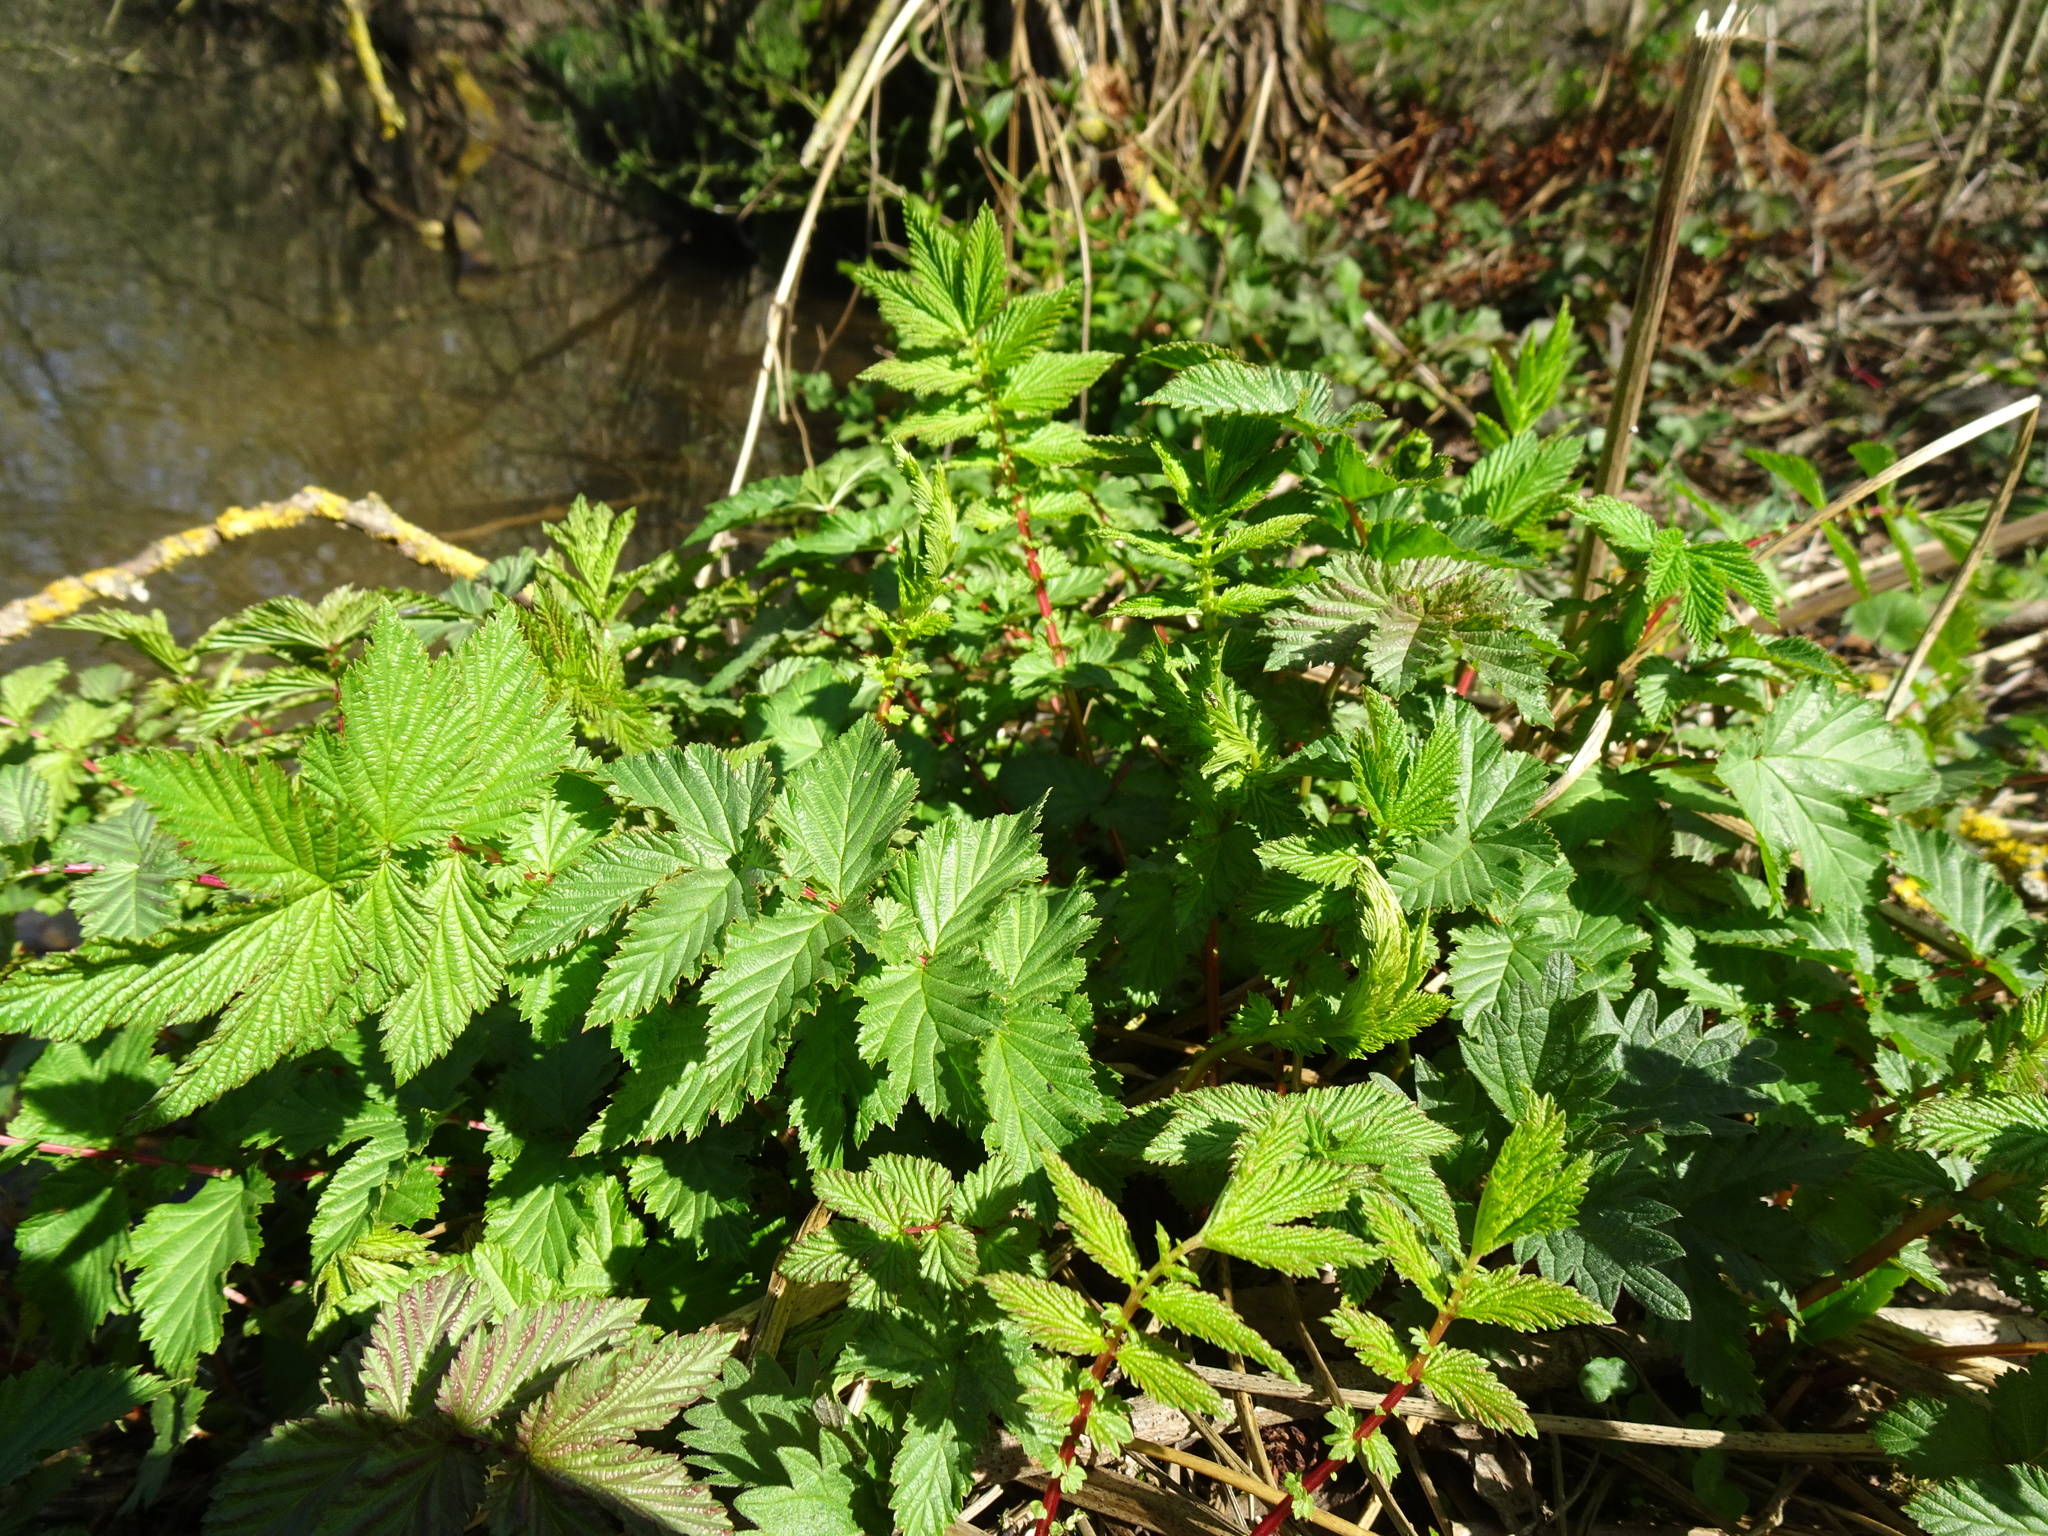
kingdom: Plantae
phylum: Tracheophyta
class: Magnoliopsida
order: Rosales
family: Rosaceae
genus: Filipendula
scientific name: Filipendula ulmaria
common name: Meadowsweet
